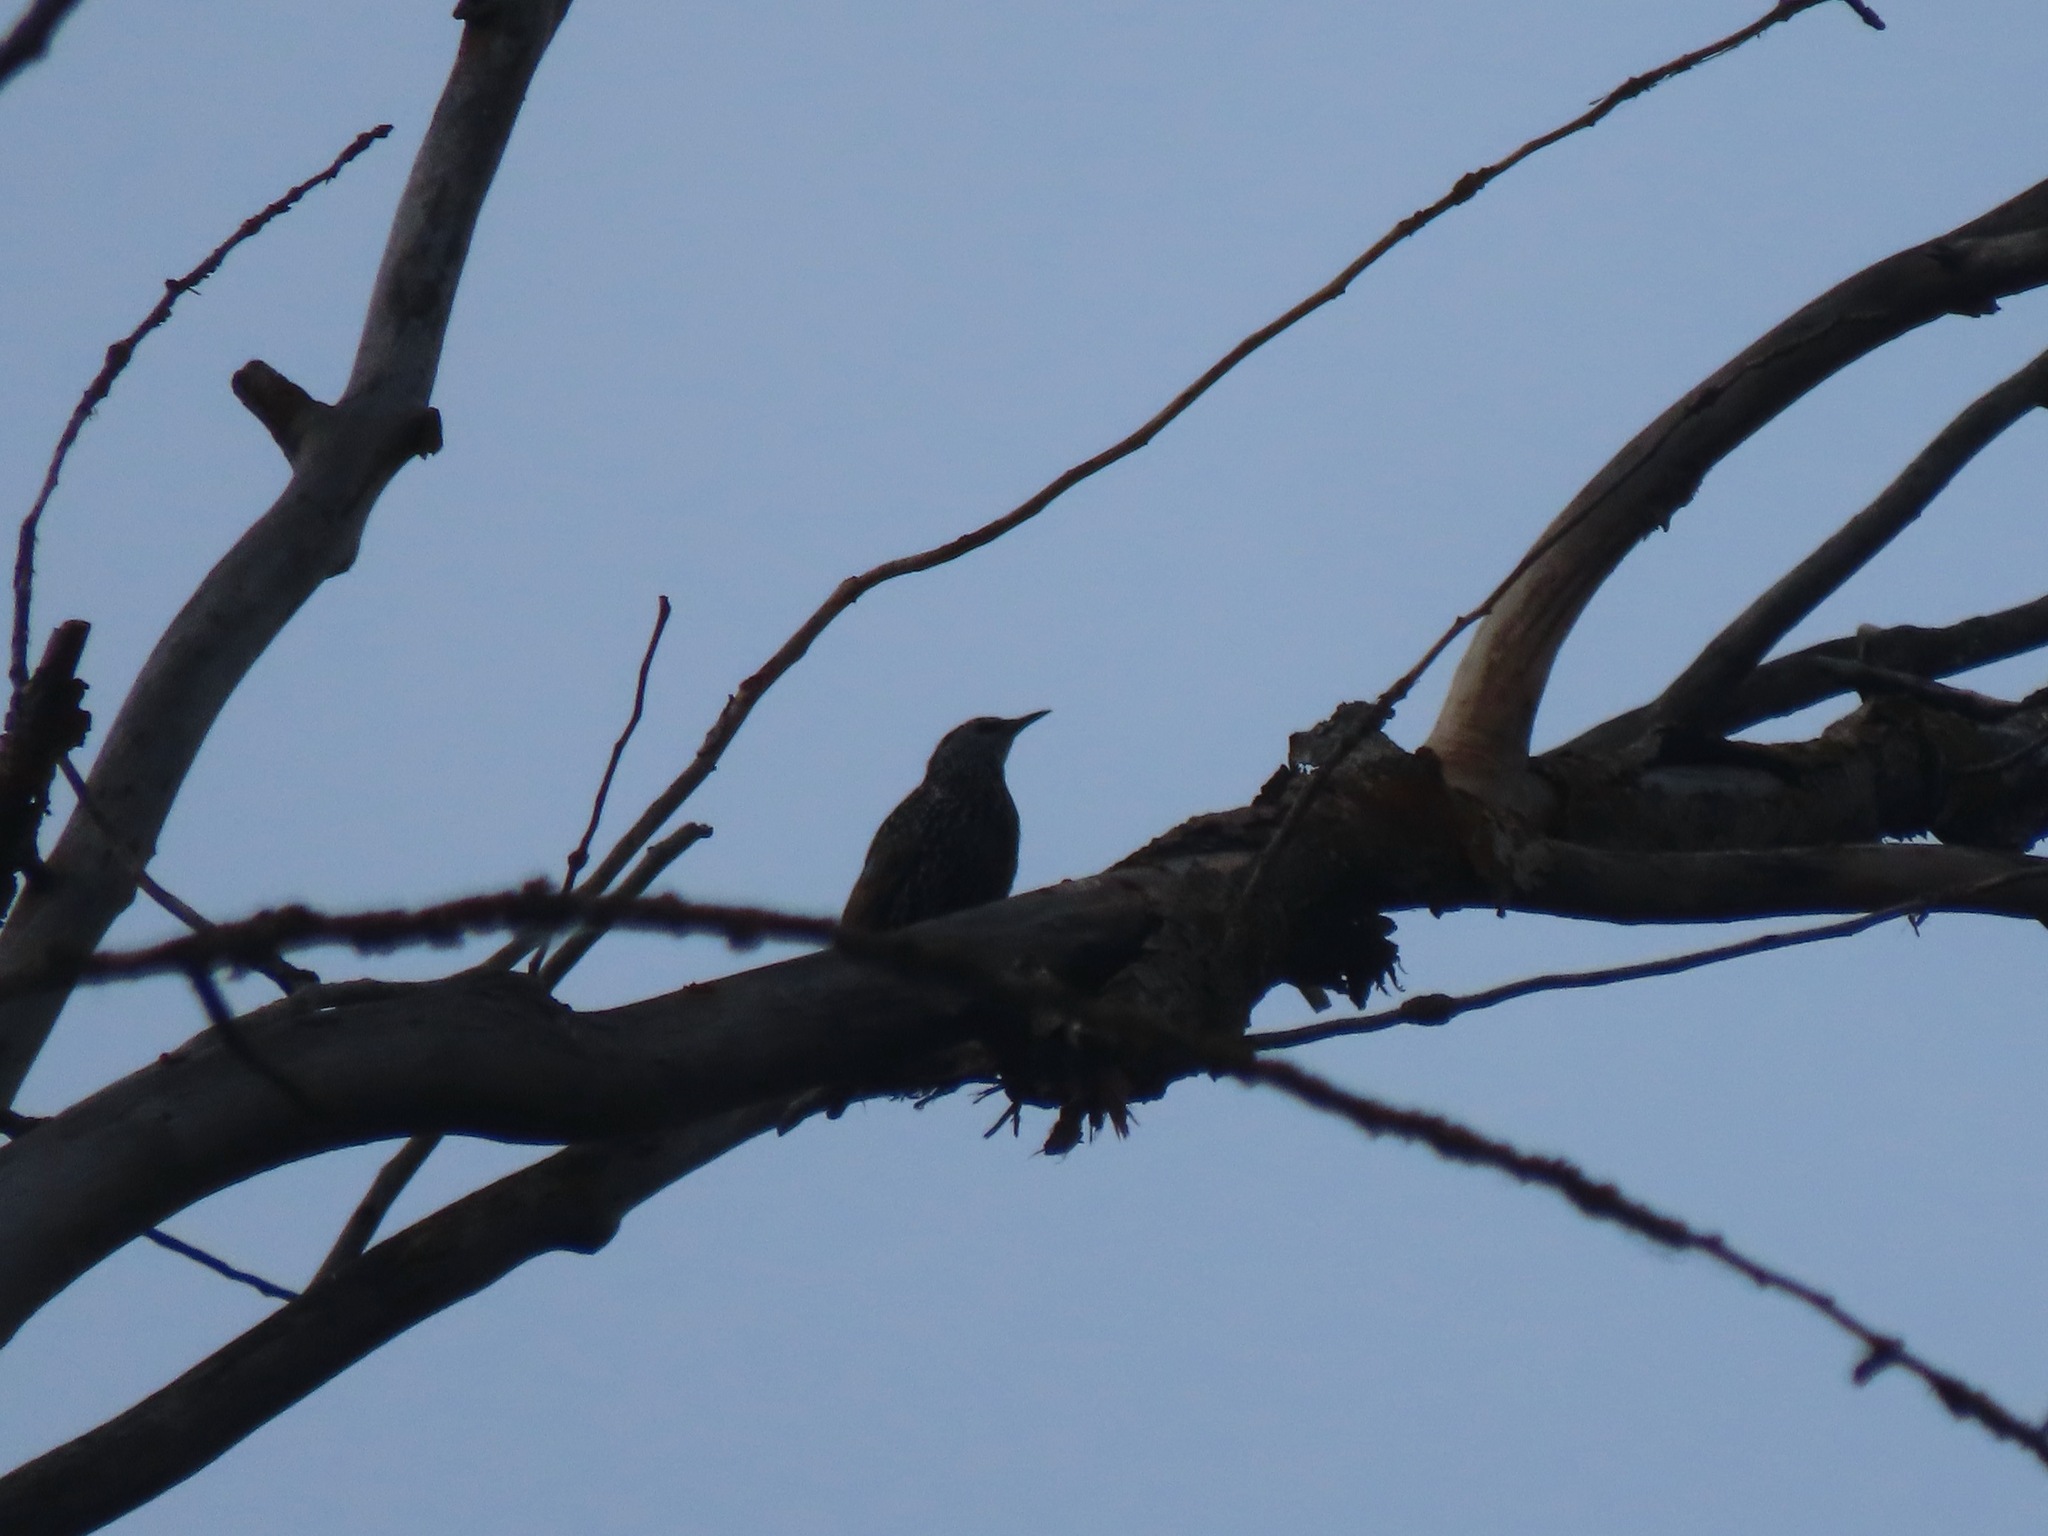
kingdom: Animalia
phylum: Chordata
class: Aves
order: Passeriformes
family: Sturnidae
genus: Sturnus
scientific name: Sturnus vulgaris
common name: Common starling
